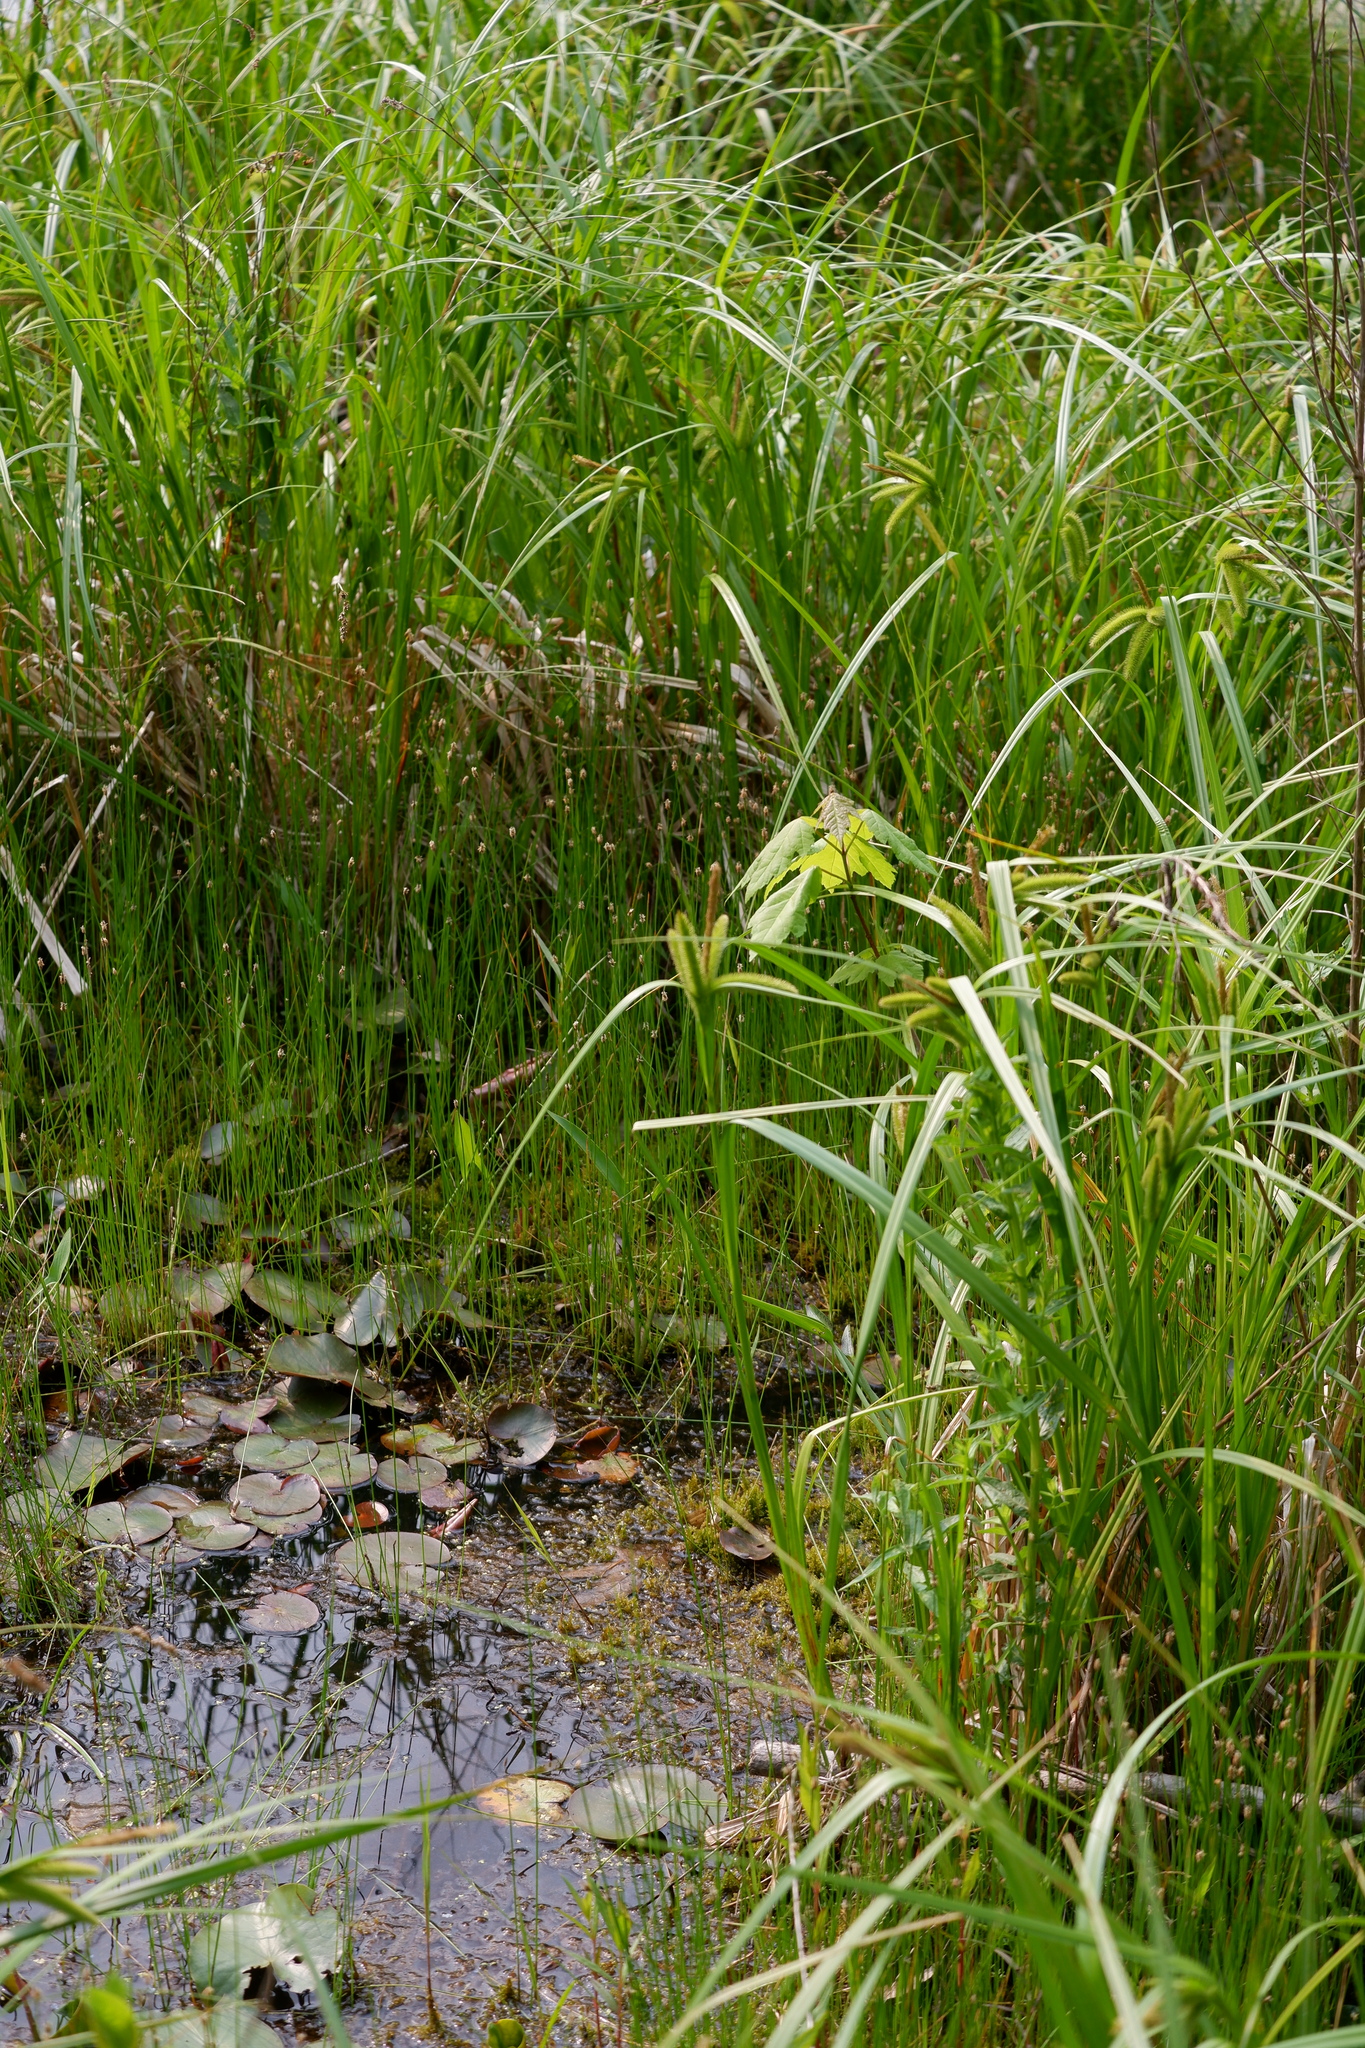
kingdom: Plantae
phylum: Tracheophyta
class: Magnoliopsida
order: Ericales
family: Primulaceae
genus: Lysimachia
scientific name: Lysimachia thyrsiflora
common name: Tufted loosestrife
